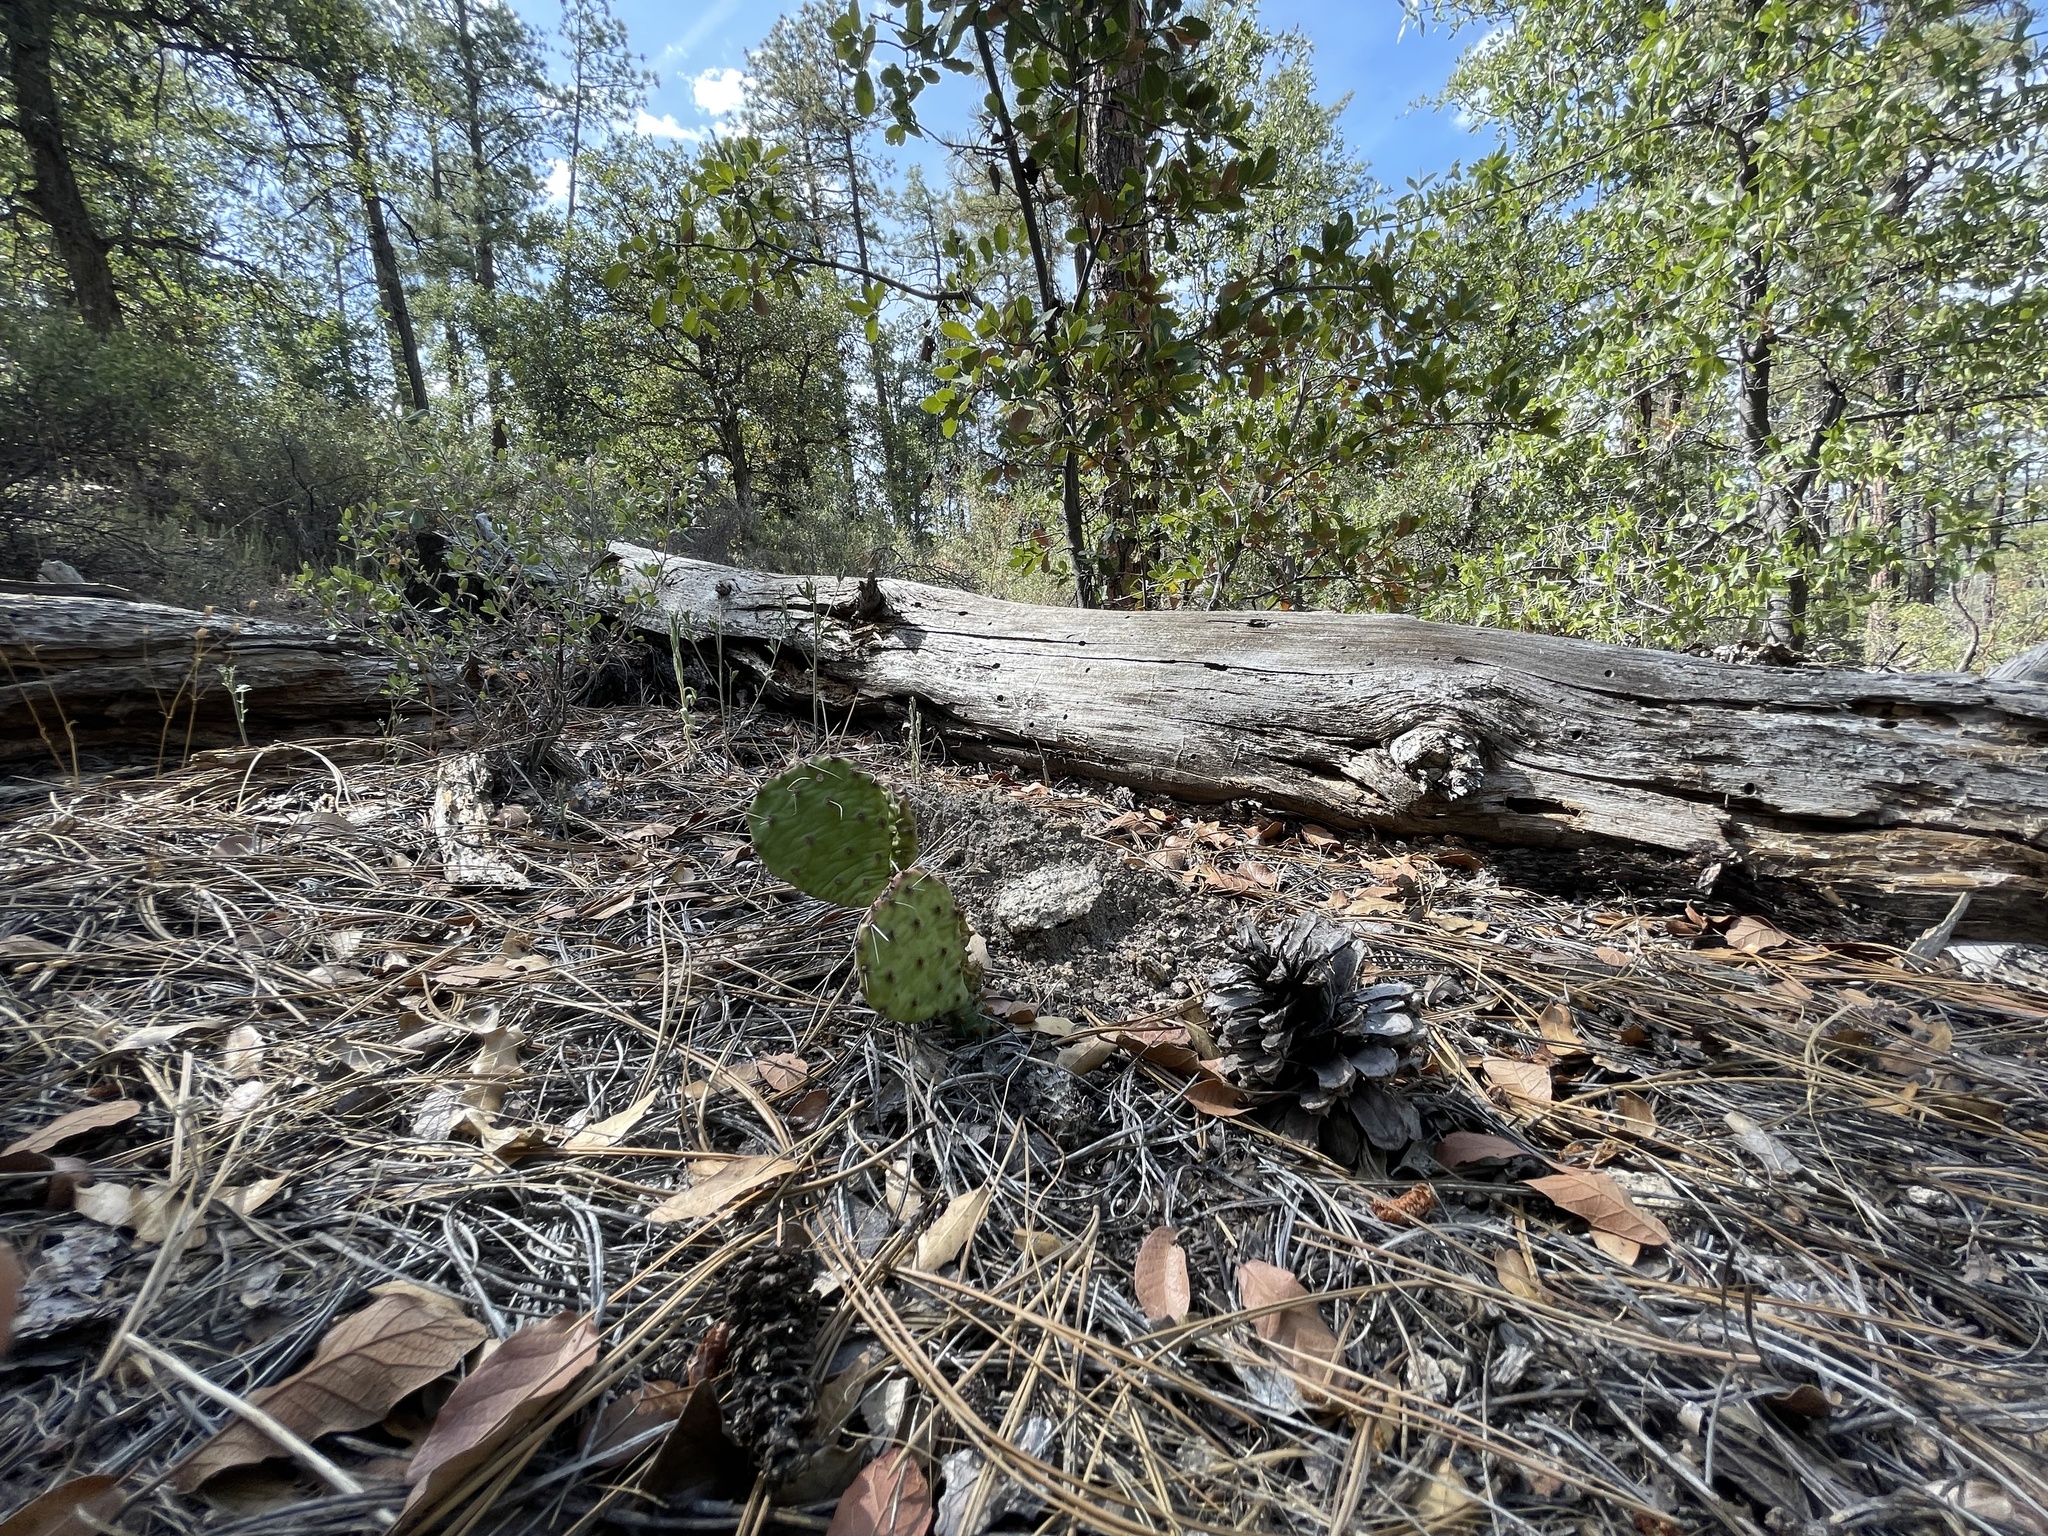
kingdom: Plantae
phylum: Tracheophyta
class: Magnoliopsida
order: Caryophyllales
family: Cactaceae
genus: Opuntia
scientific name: Opuntia macrorhiza
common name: Grassland pricklypear
